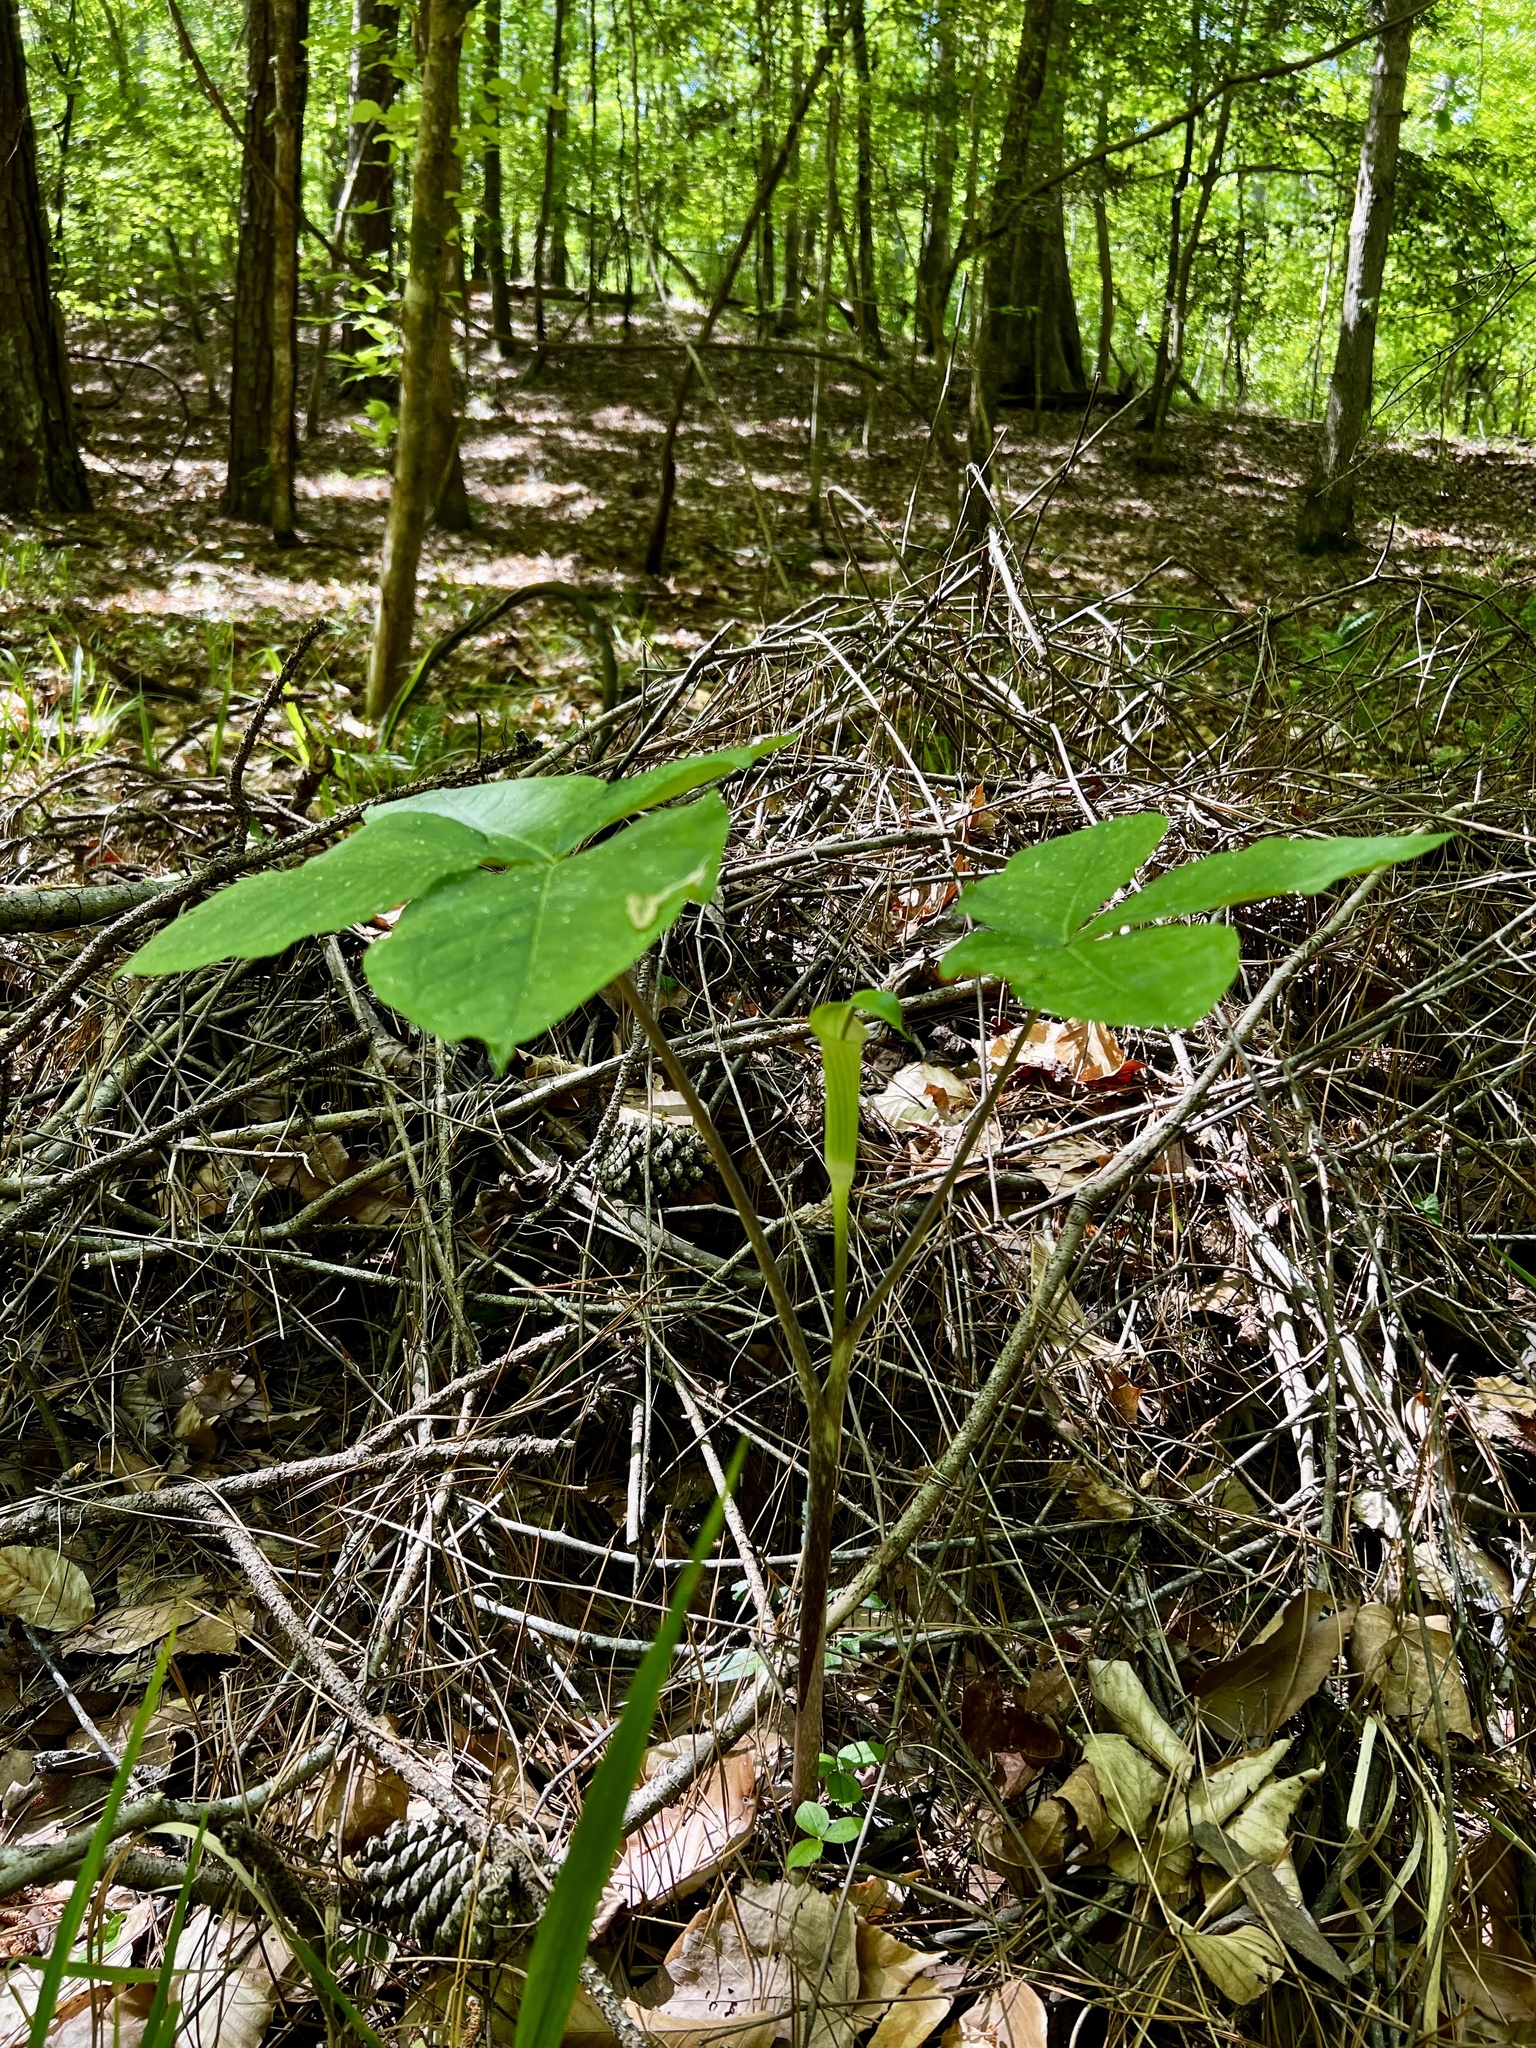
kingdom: Plantae
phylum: Tracheophyta
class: Liliopsida
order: Alismatales
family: Araceae
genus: Arisaema
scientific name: Arisaema quinatum
